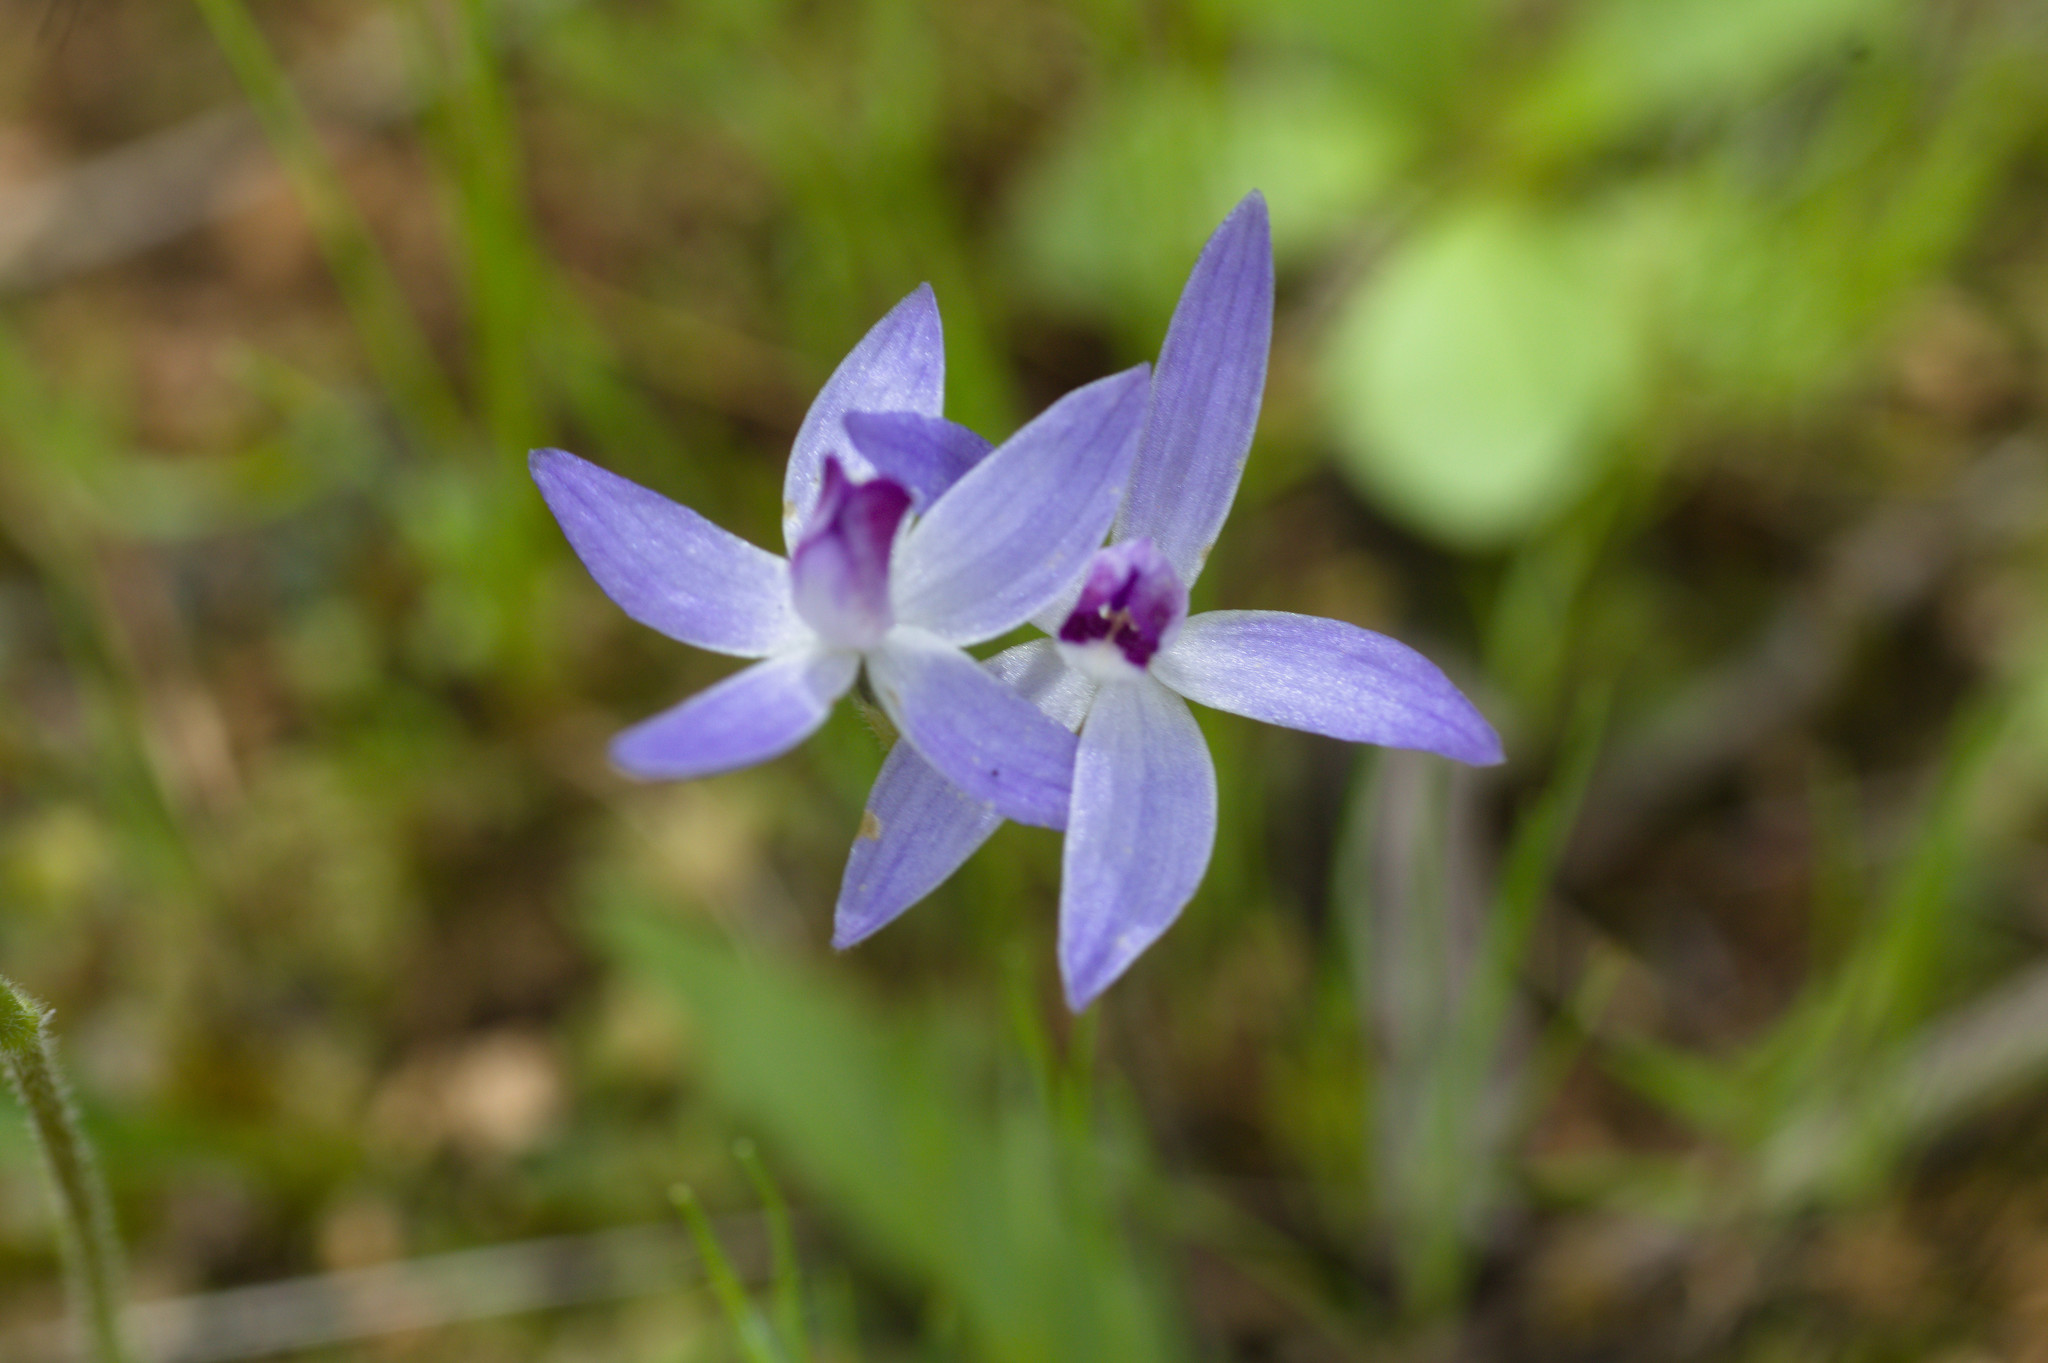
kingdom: Plantae
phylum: Tracheophyta
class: Liliopsida
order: Asparagales
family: Orchidaceae
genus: Caladenia
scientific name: Caladenia amplexans
